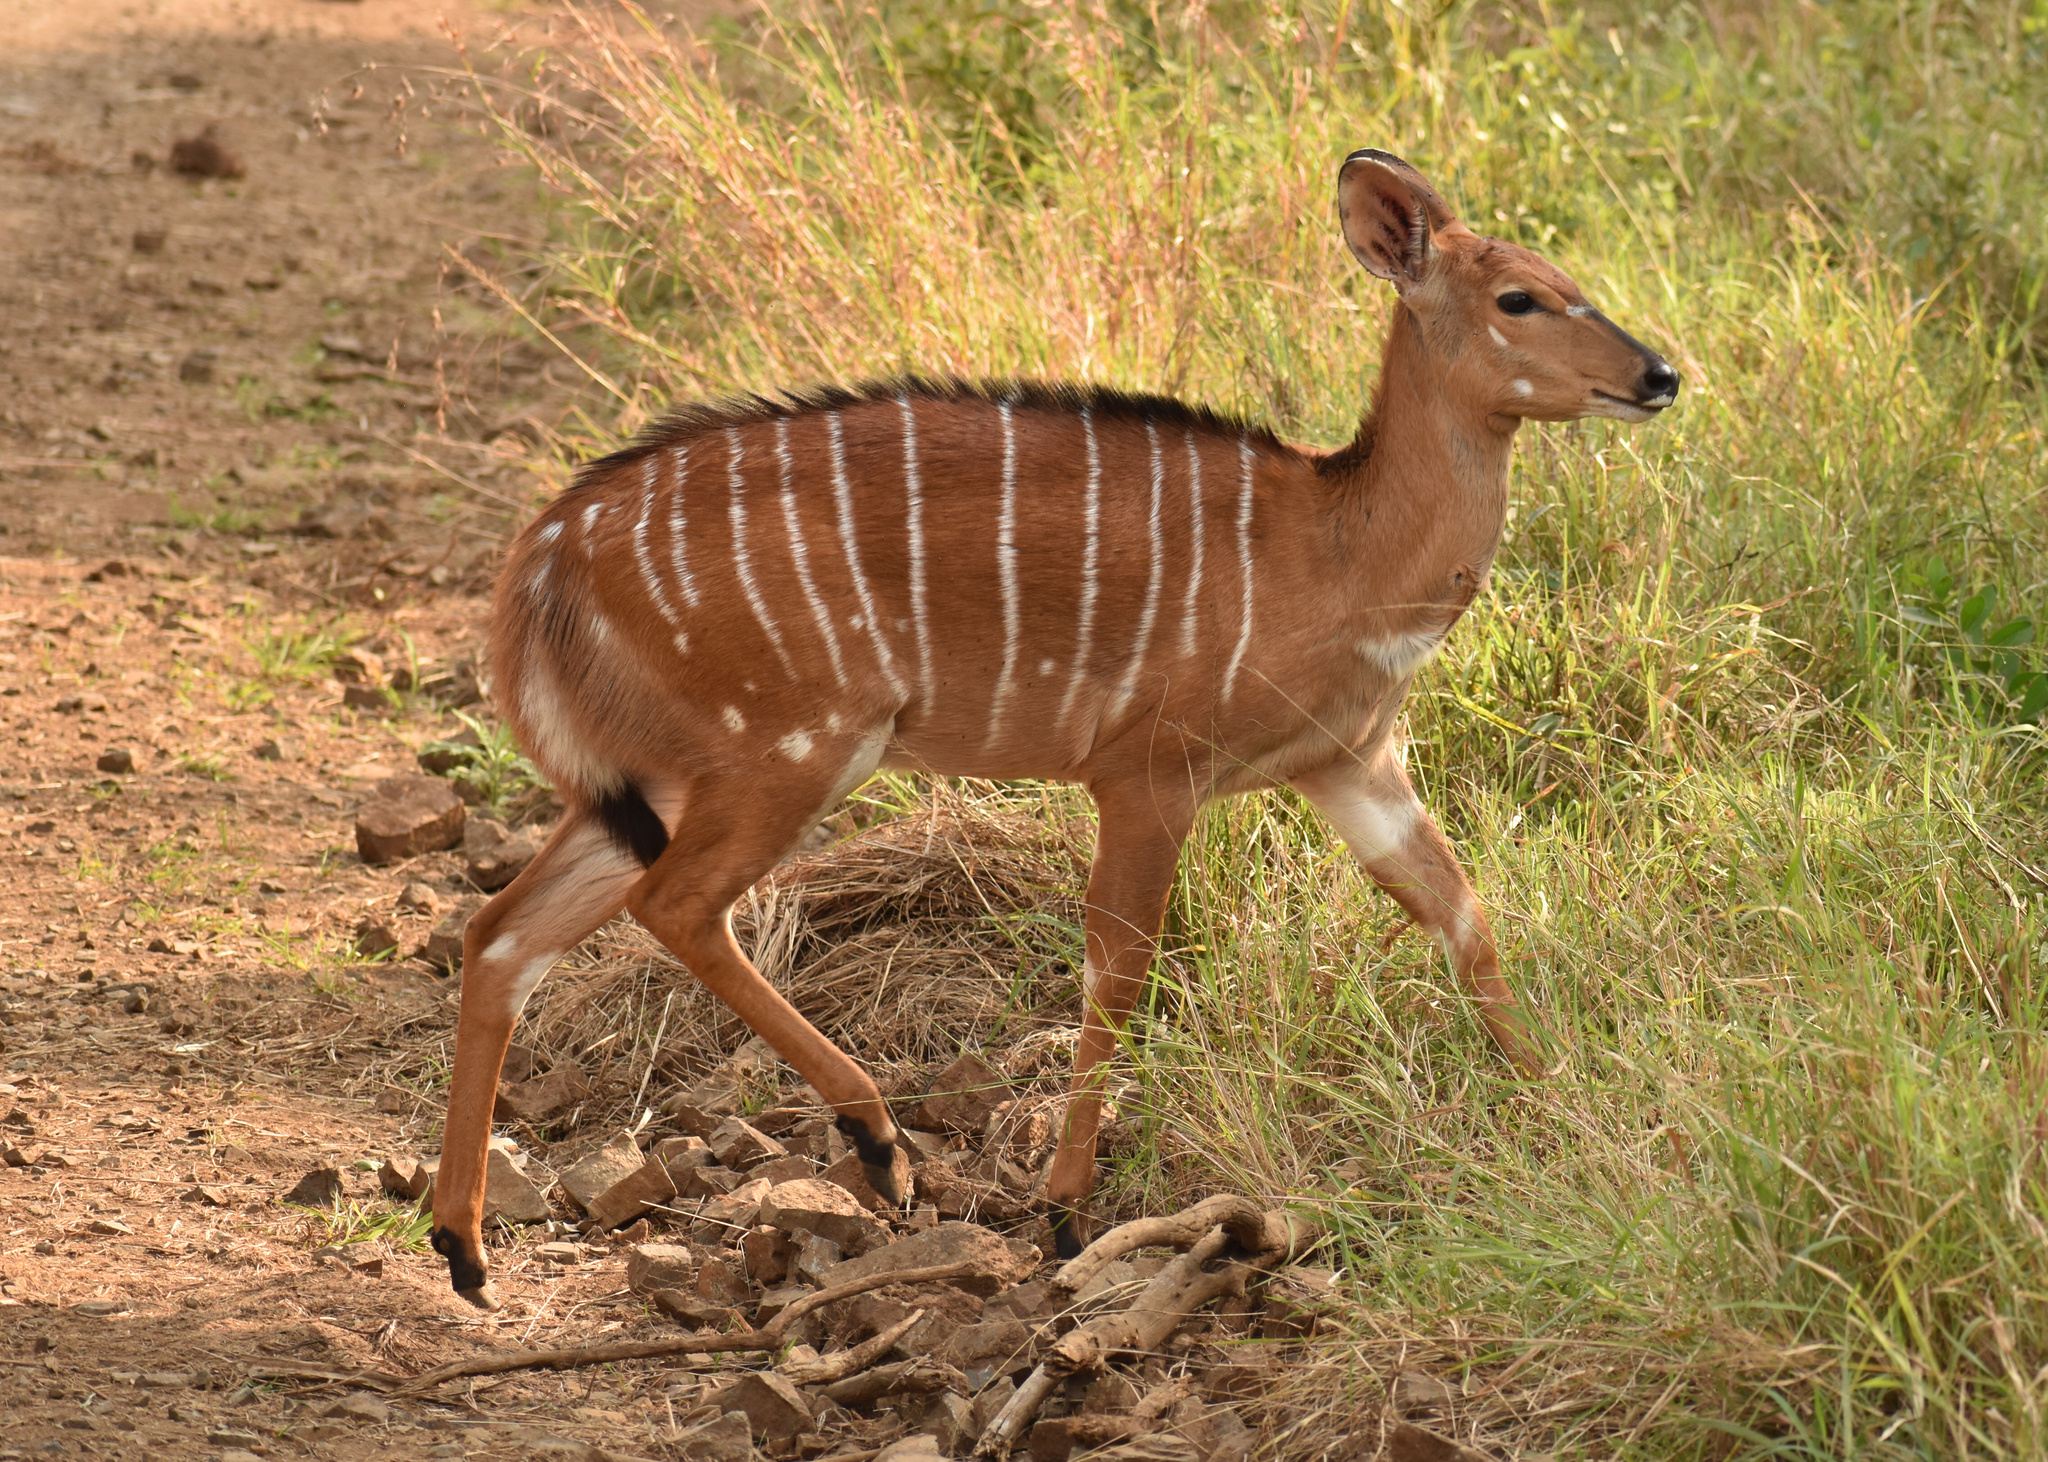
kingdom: Animalia
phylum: Chordata
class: Mammalia
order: Artiodactyla
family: Bovidae
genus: Tragelaphus
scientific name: Tragelaphus angasii
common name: Nyala
